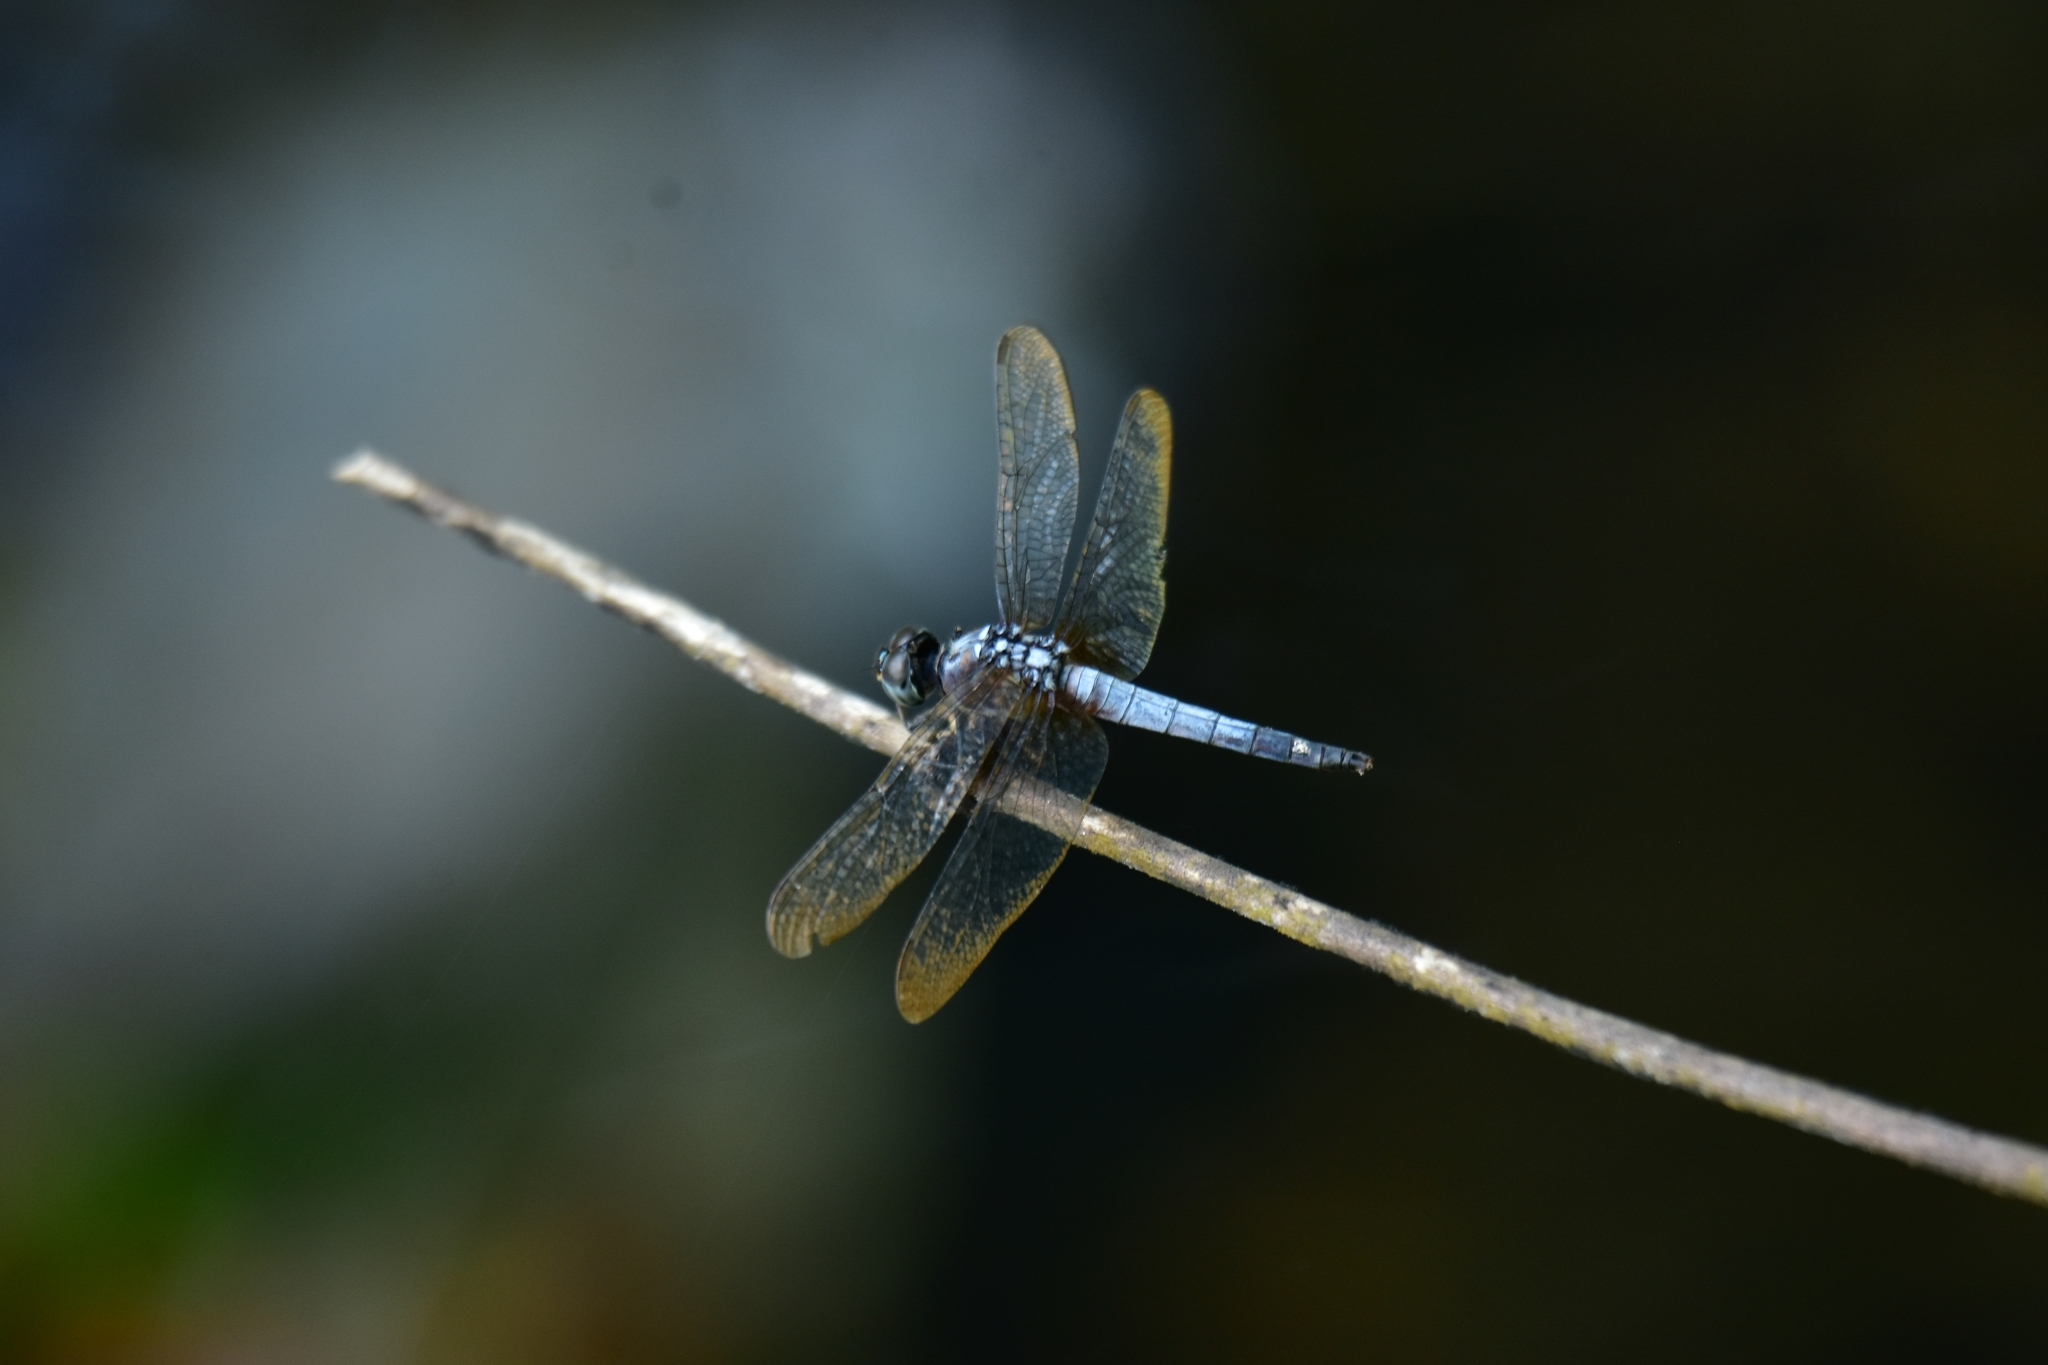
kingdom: Animalia
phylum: Arthropoda
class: Insecta
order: Odonata
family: Libellulidae
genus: Brachydiplax
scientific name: Brachydiplax chalybea
